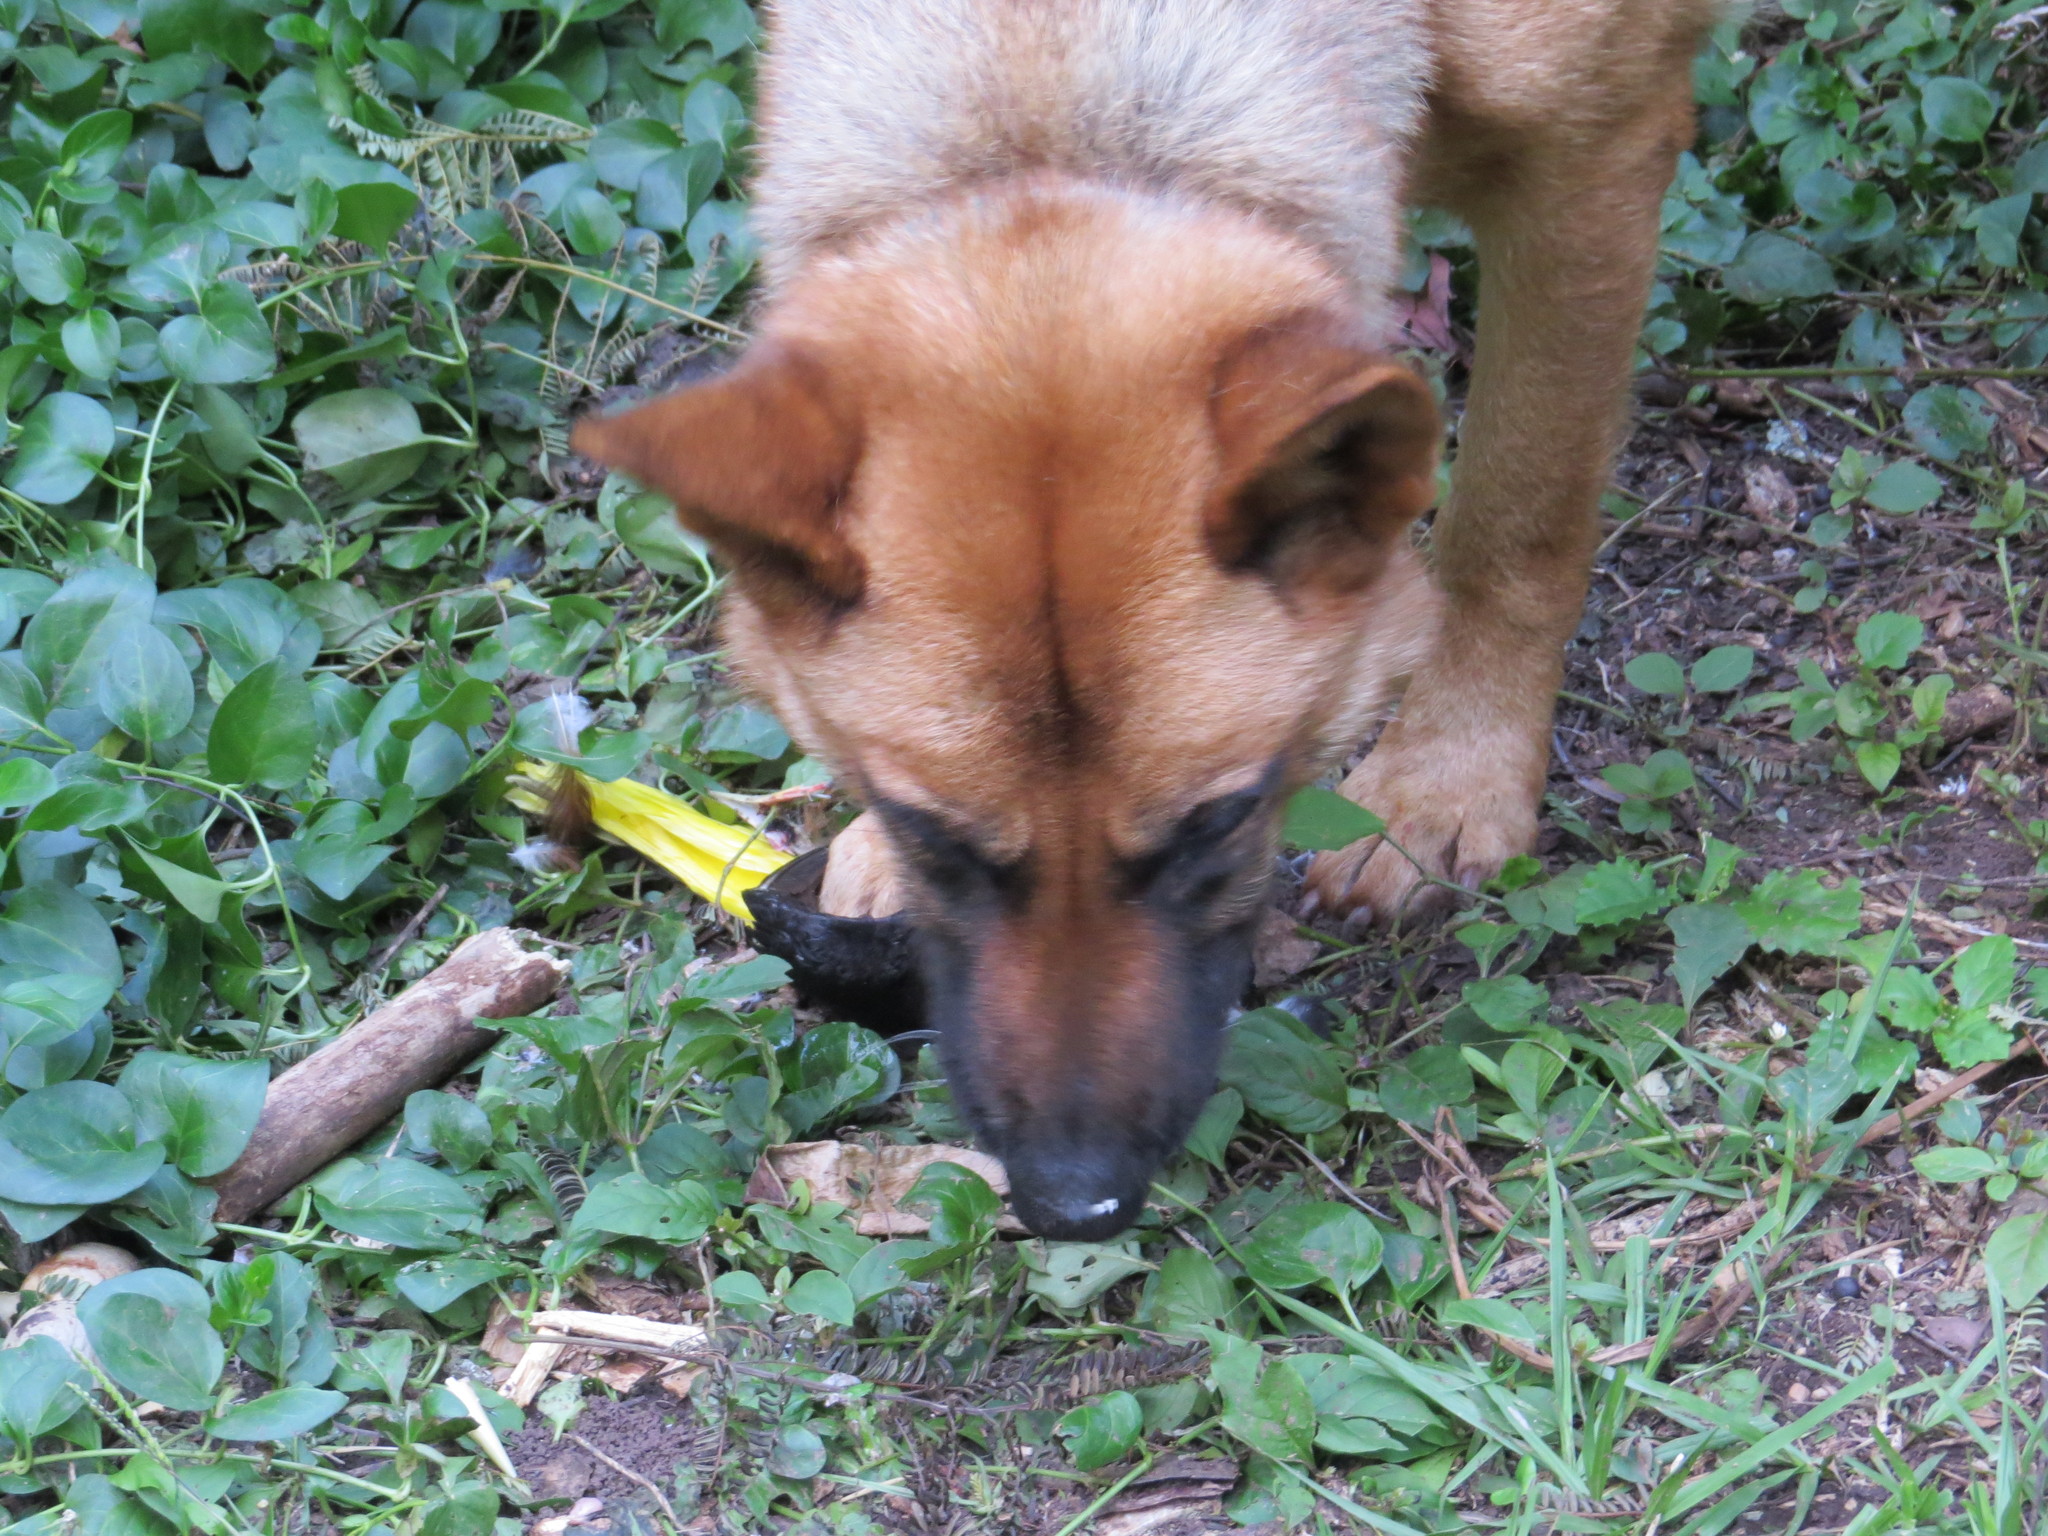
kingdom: Animalia
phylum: Chordata
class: Aves
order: Passeriformes
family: Icteridae
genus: Psarocolius
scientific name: Psarocolius decumanus
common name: Crested oropendola
